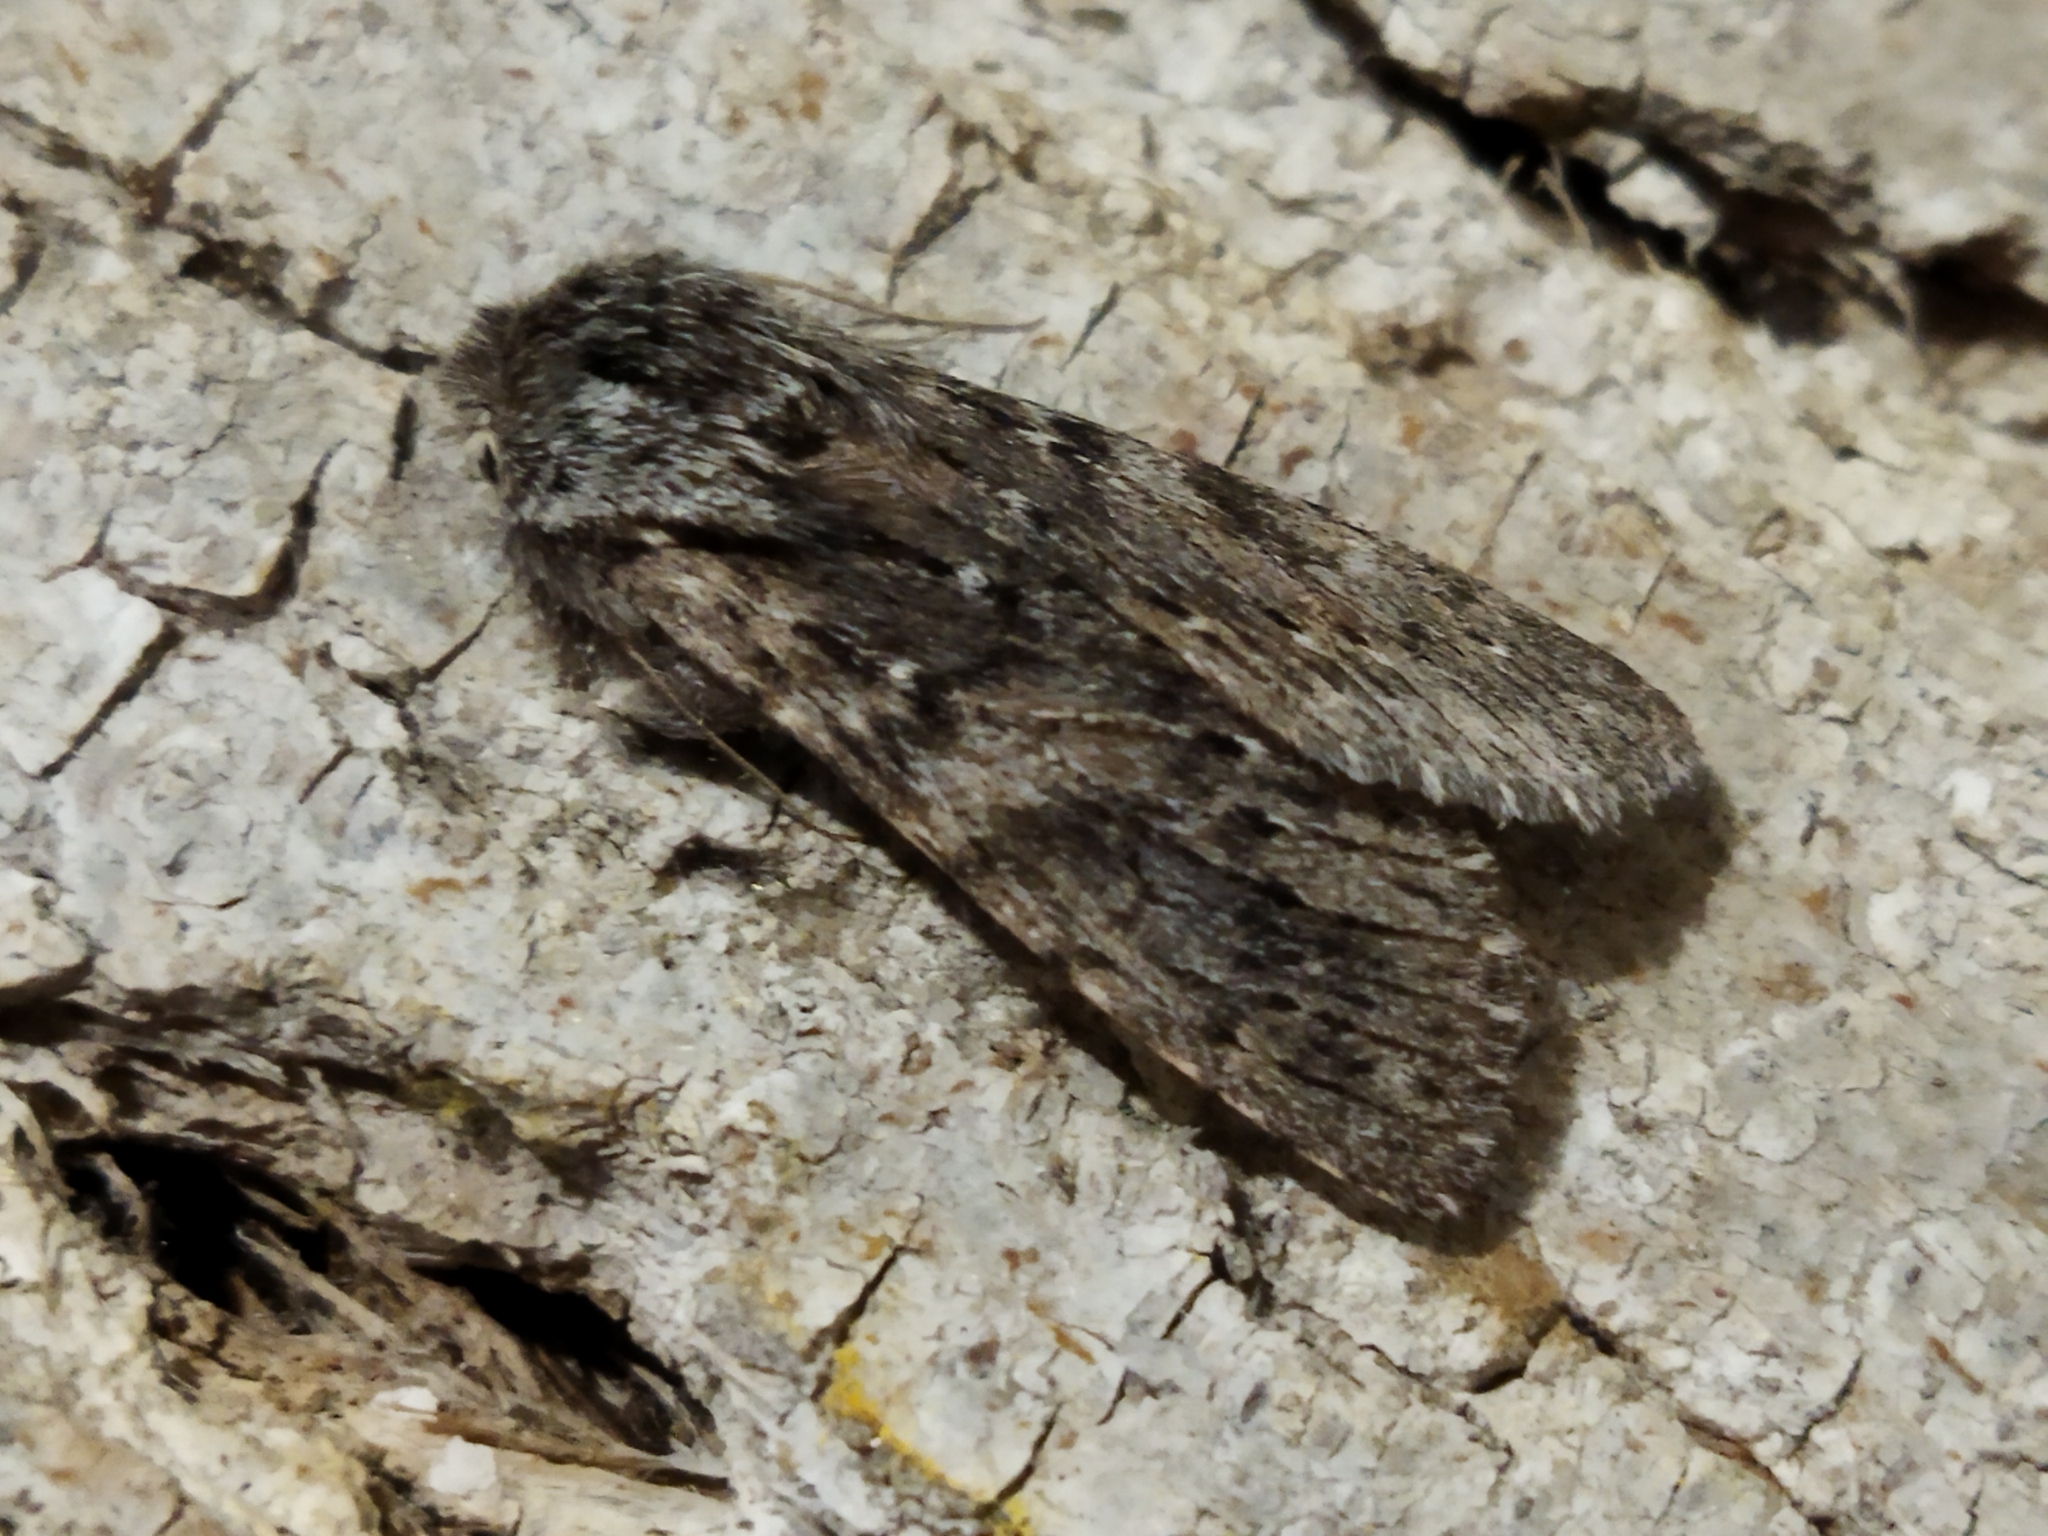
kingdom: Animalia
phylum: Arthropoda
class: Insecta
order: Lepidoptera
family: Notodontidae
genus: Dicranura
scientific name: Dicranura ulmi
